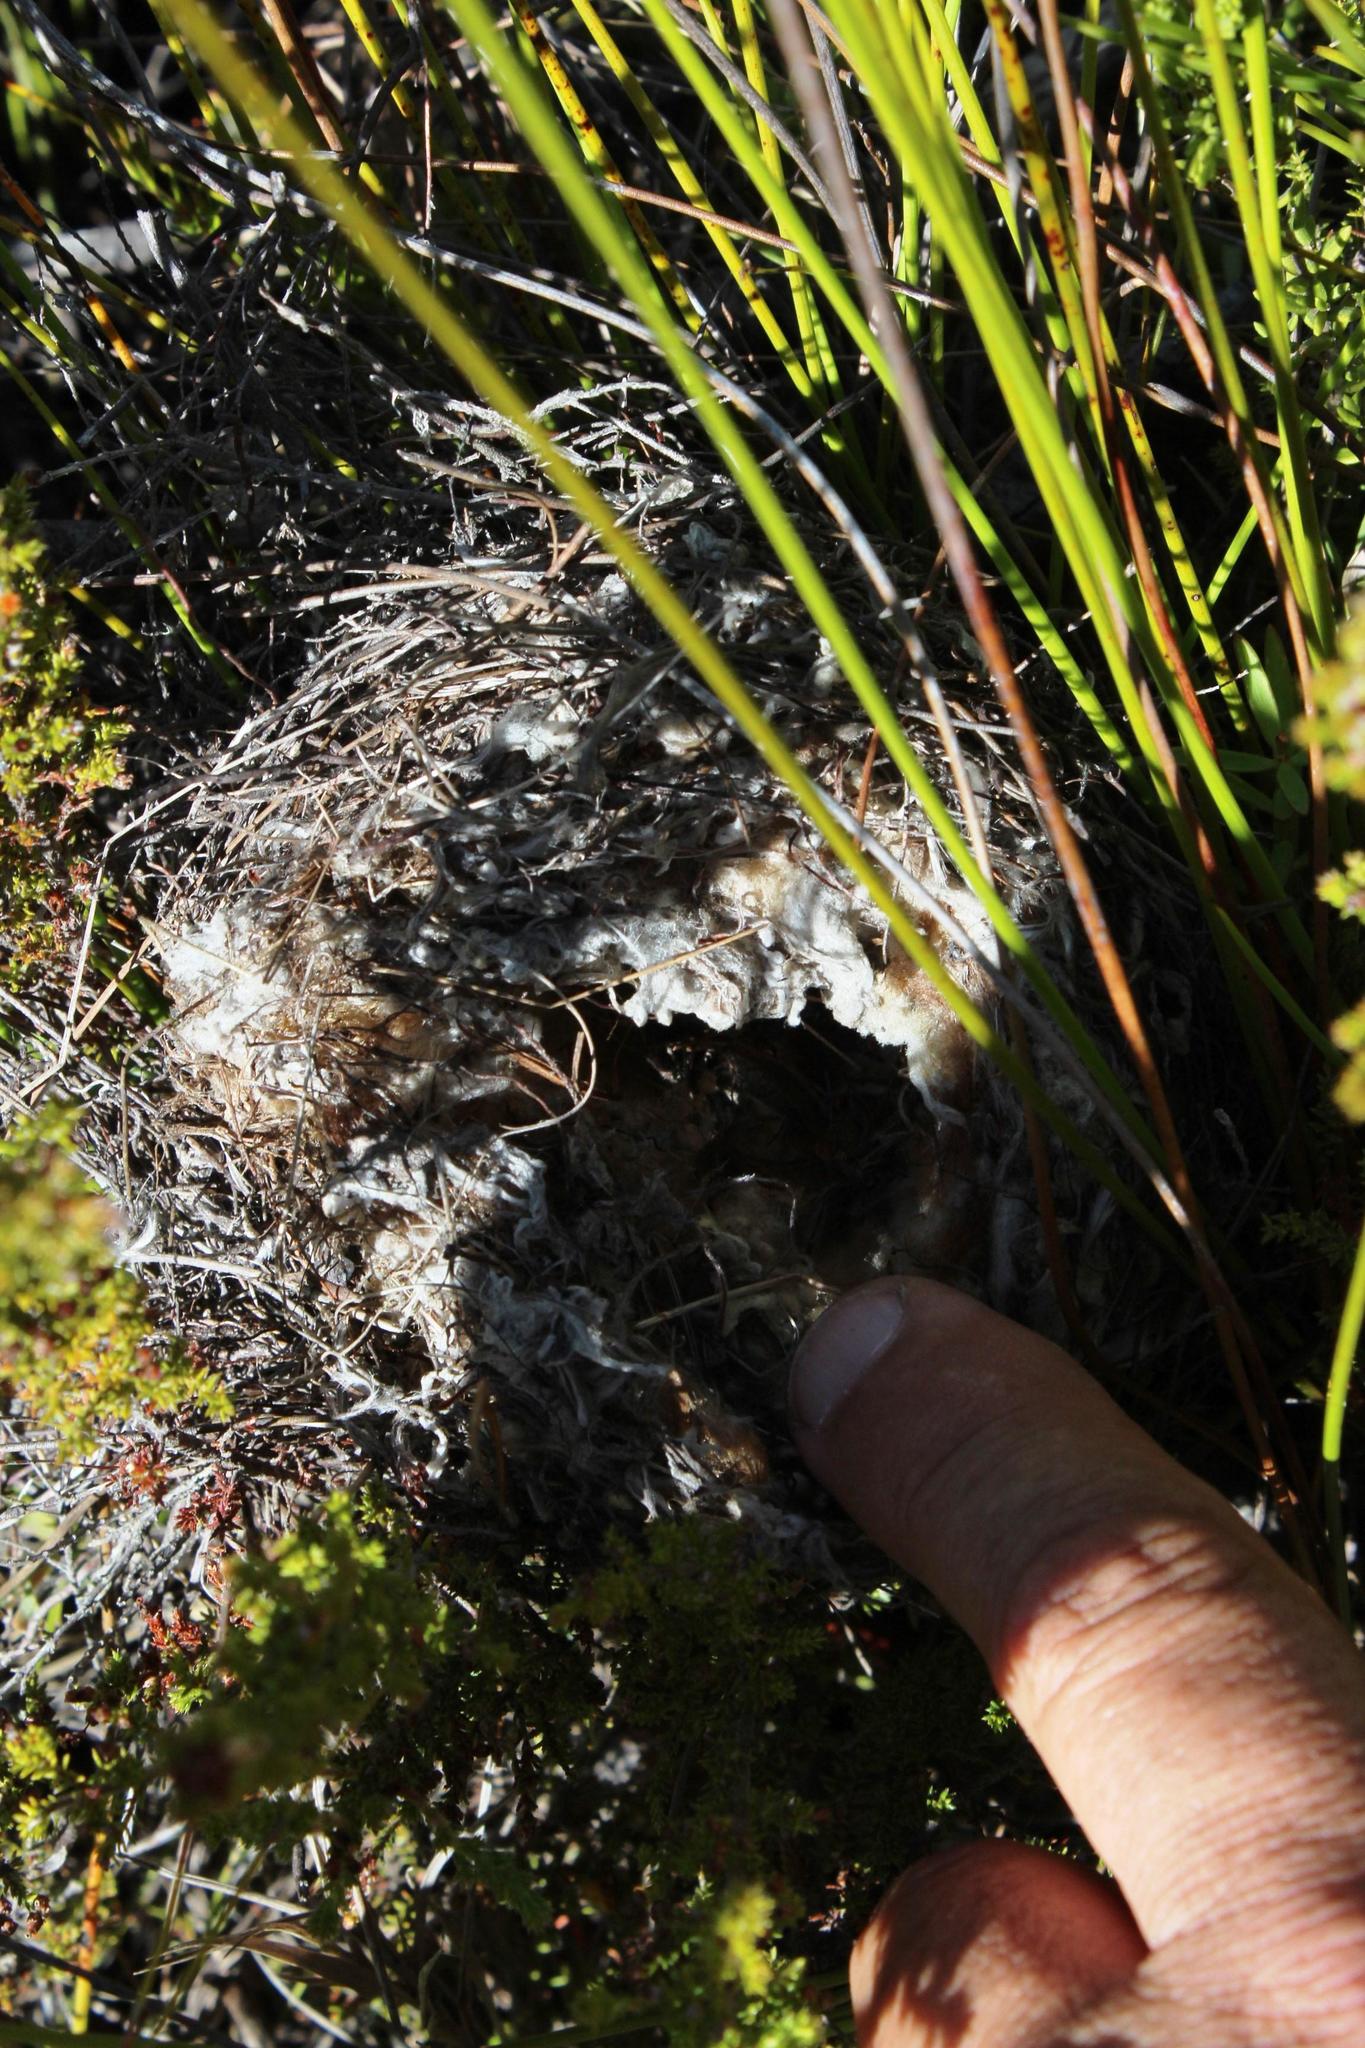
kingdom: Animalia
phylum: Chordata
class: Aves
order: Passeriformes
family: Nectariniidae
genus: Anthobaphes
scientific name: Anthobaphes violacea
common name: Orange-breasted sunbird
